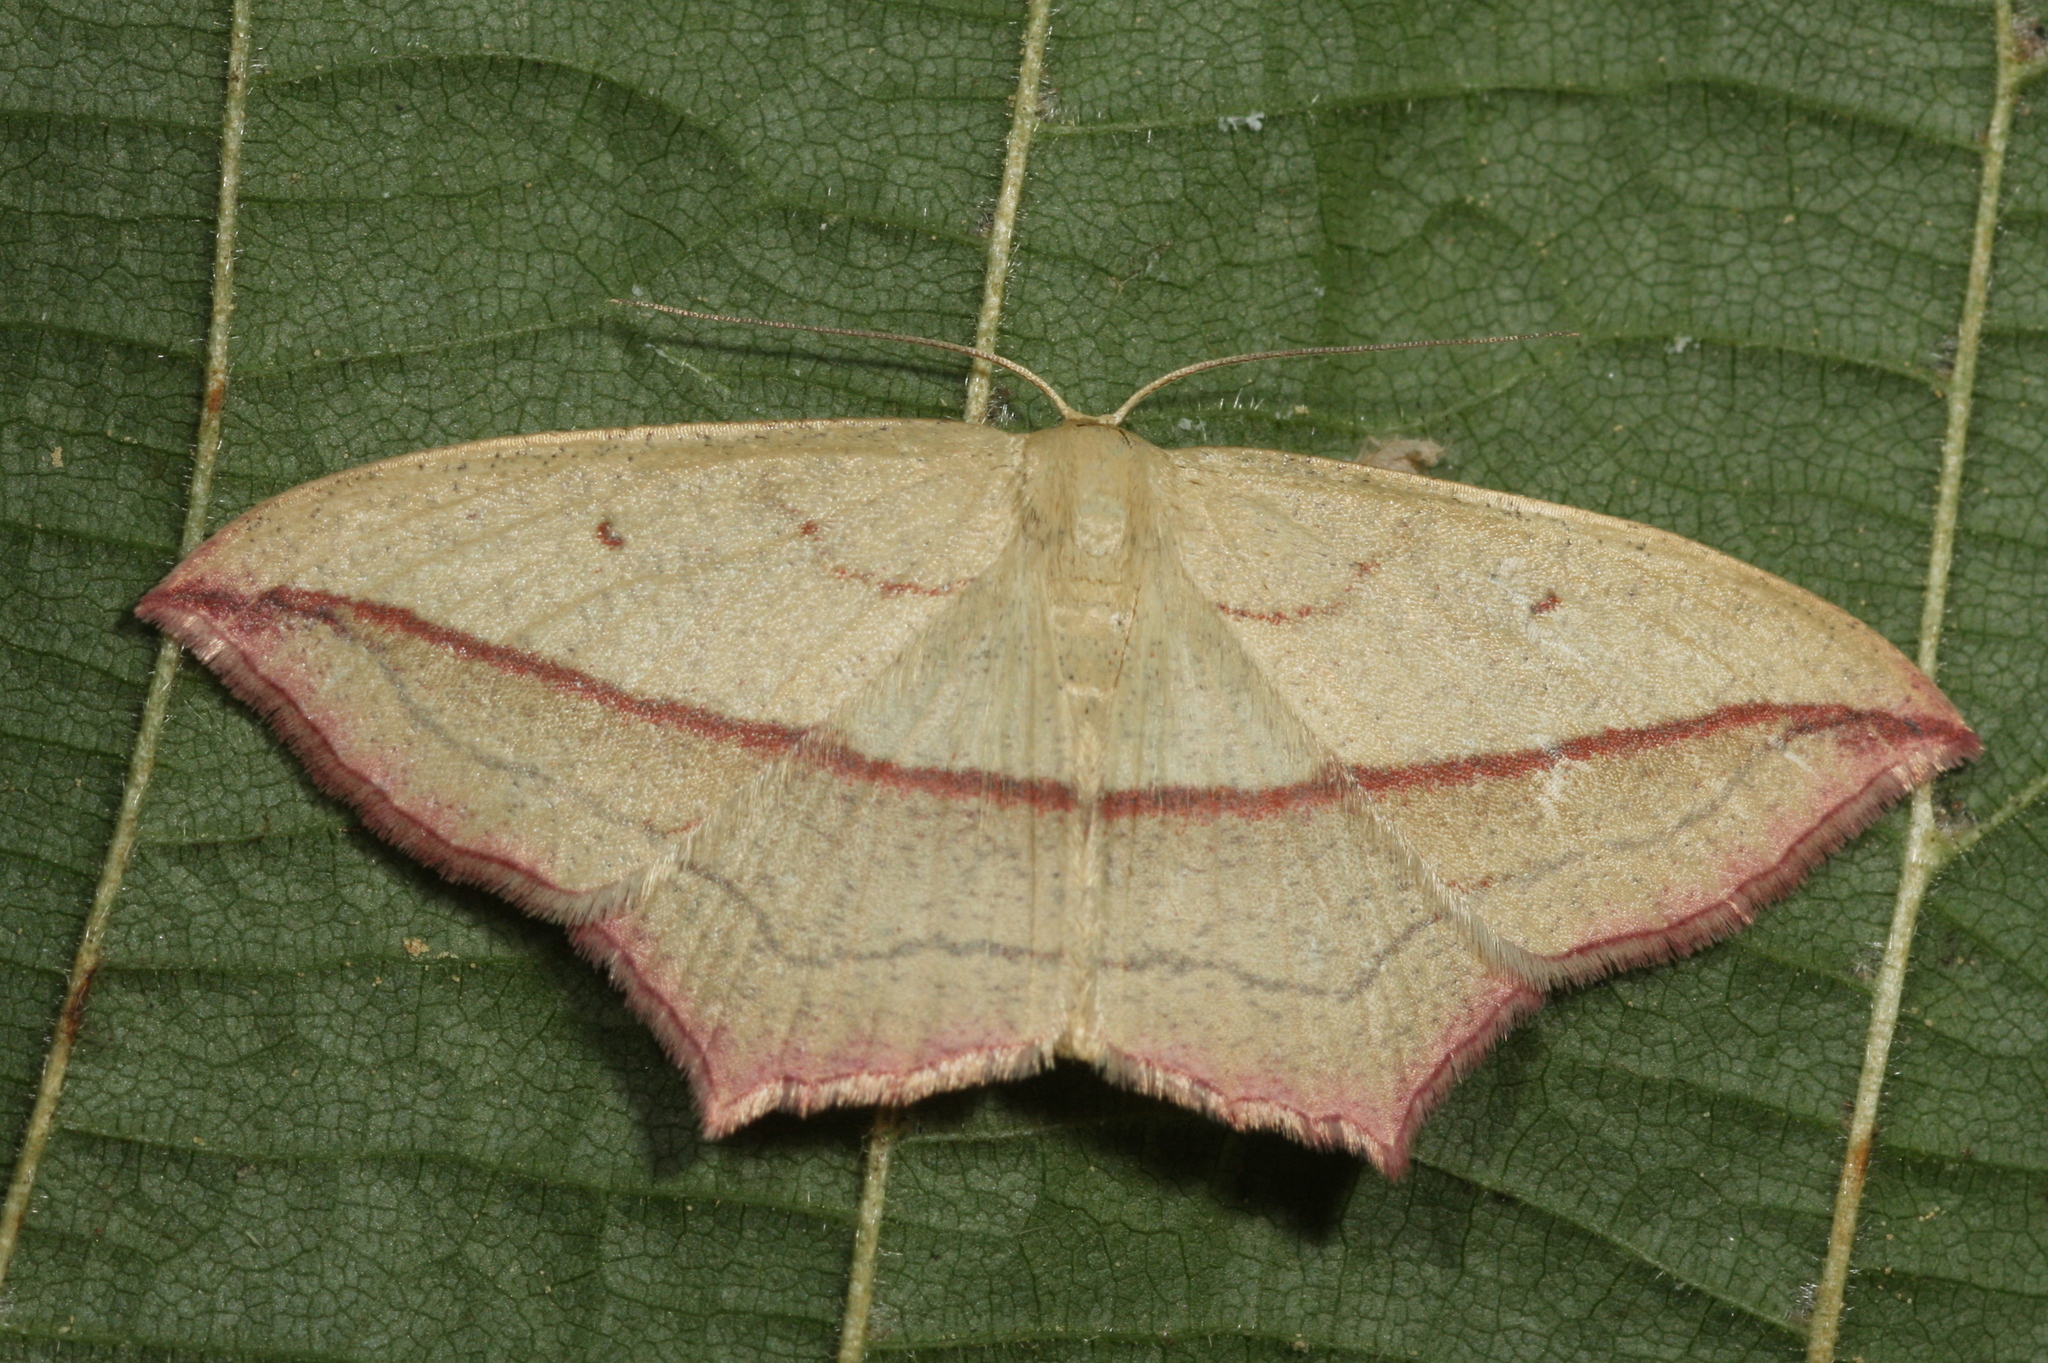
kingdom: Animalia
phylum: Arthropoda
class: Insecta
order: Lepidoptera
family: Geometridae
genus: Timandra
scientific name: Timandra comae
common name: Blood-vein
